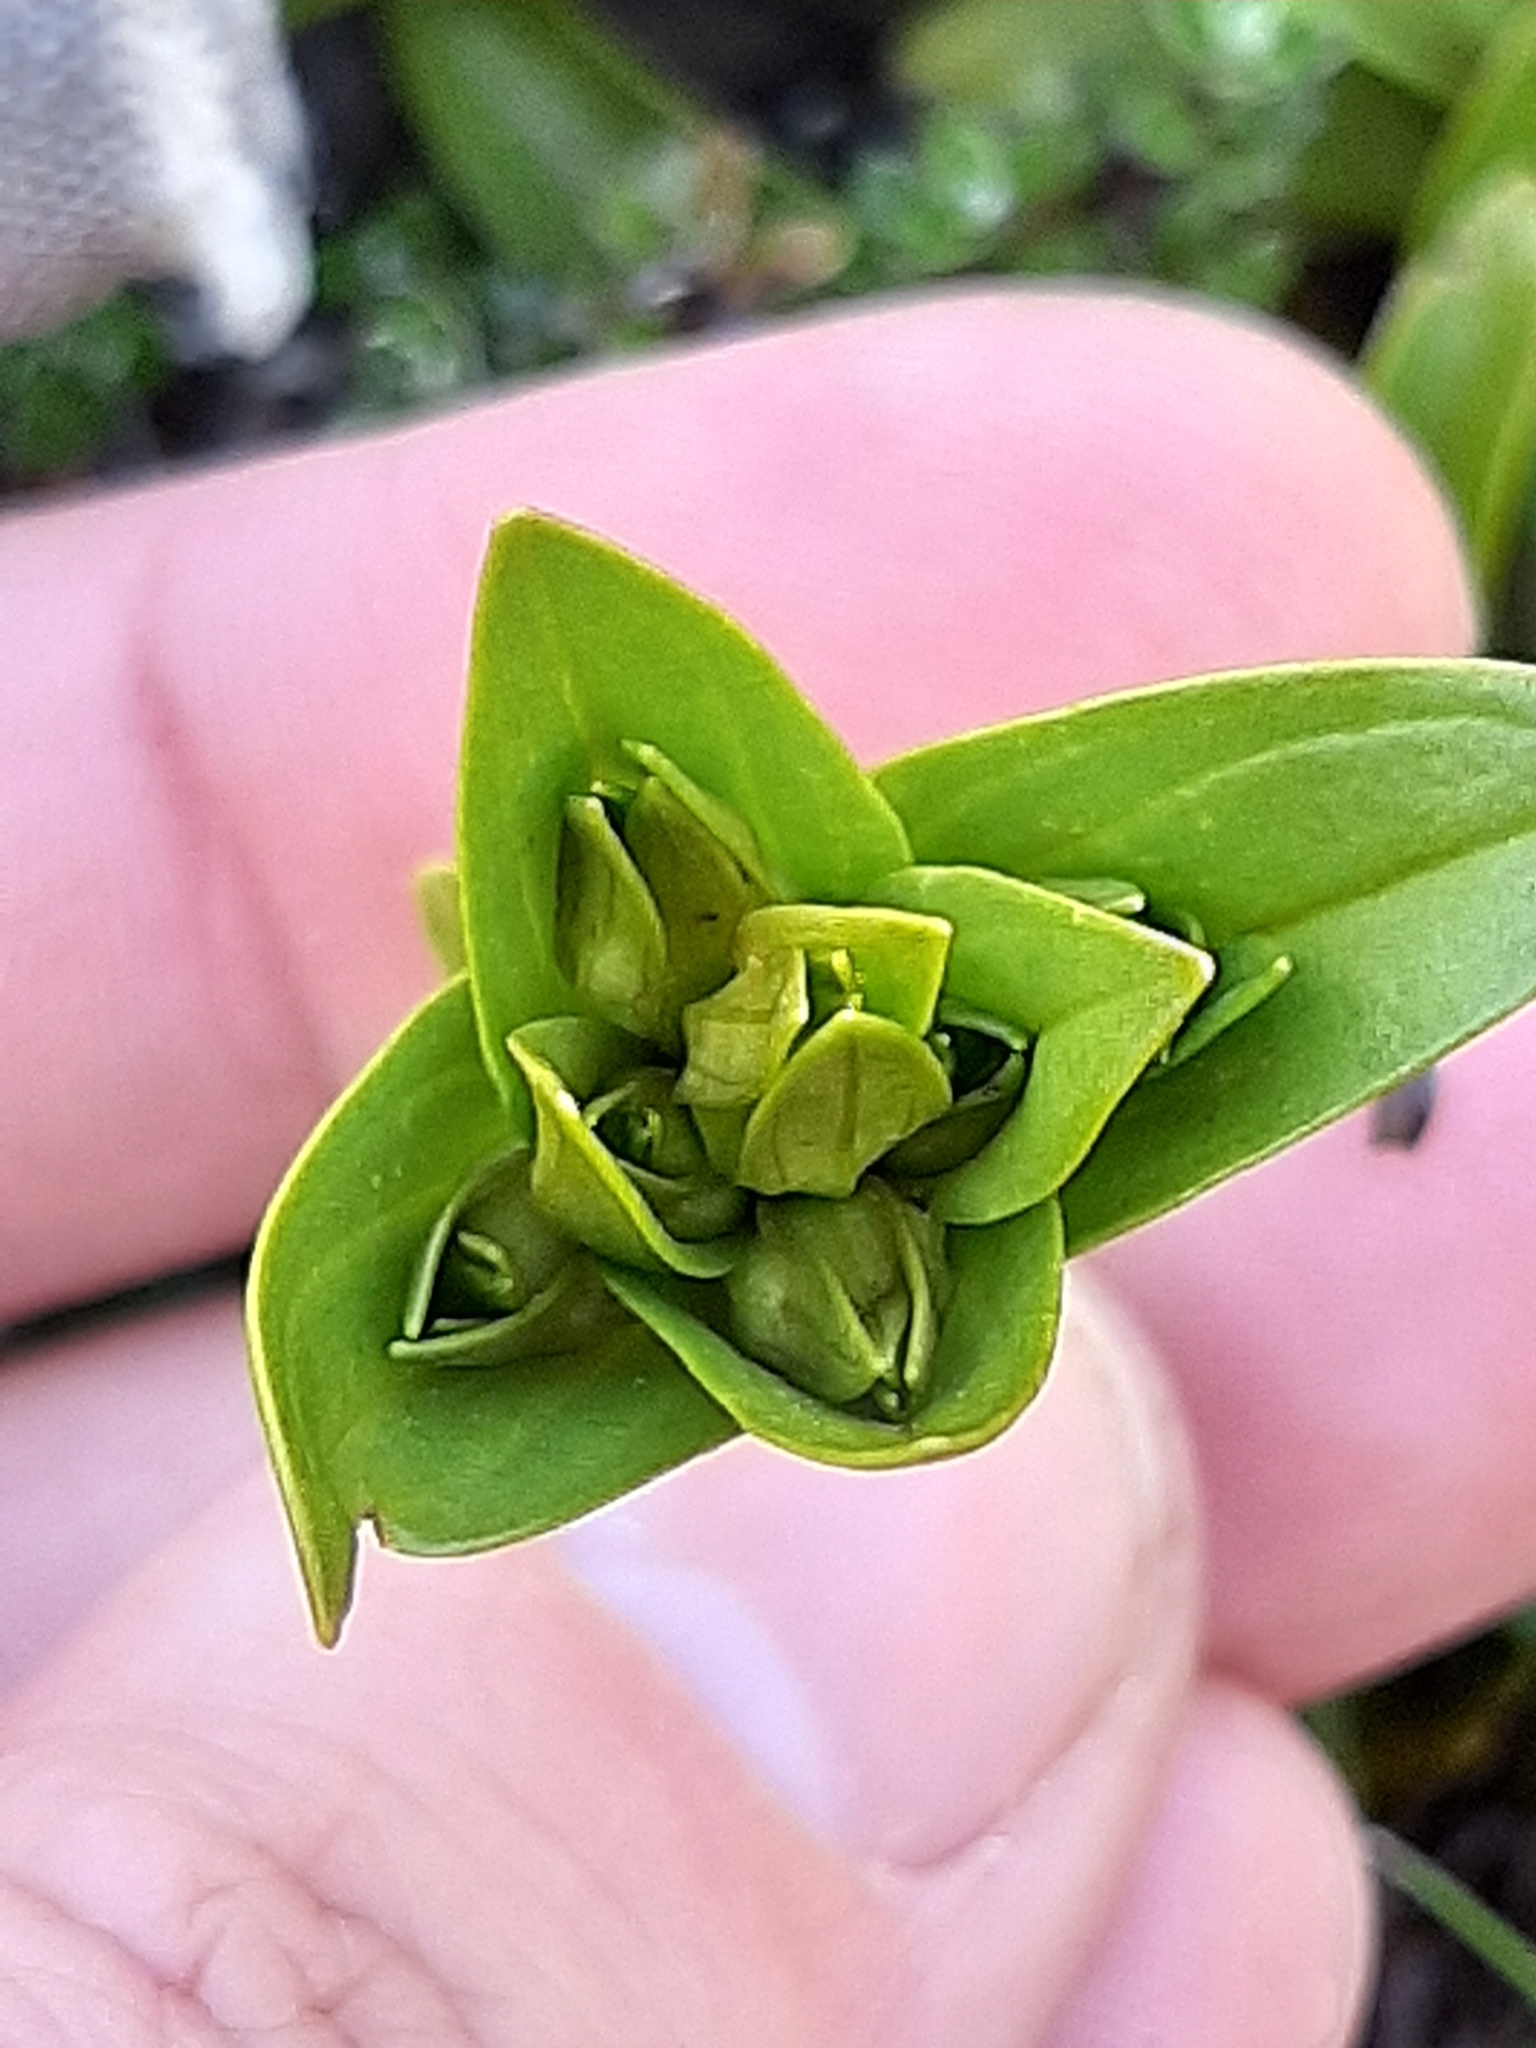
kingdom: Plantae
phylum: Tracheophyta
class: Magnoliopsida
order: Gentianales
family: Gentianaceae
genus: Gentianella
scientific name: Gentianella bellidifolia
